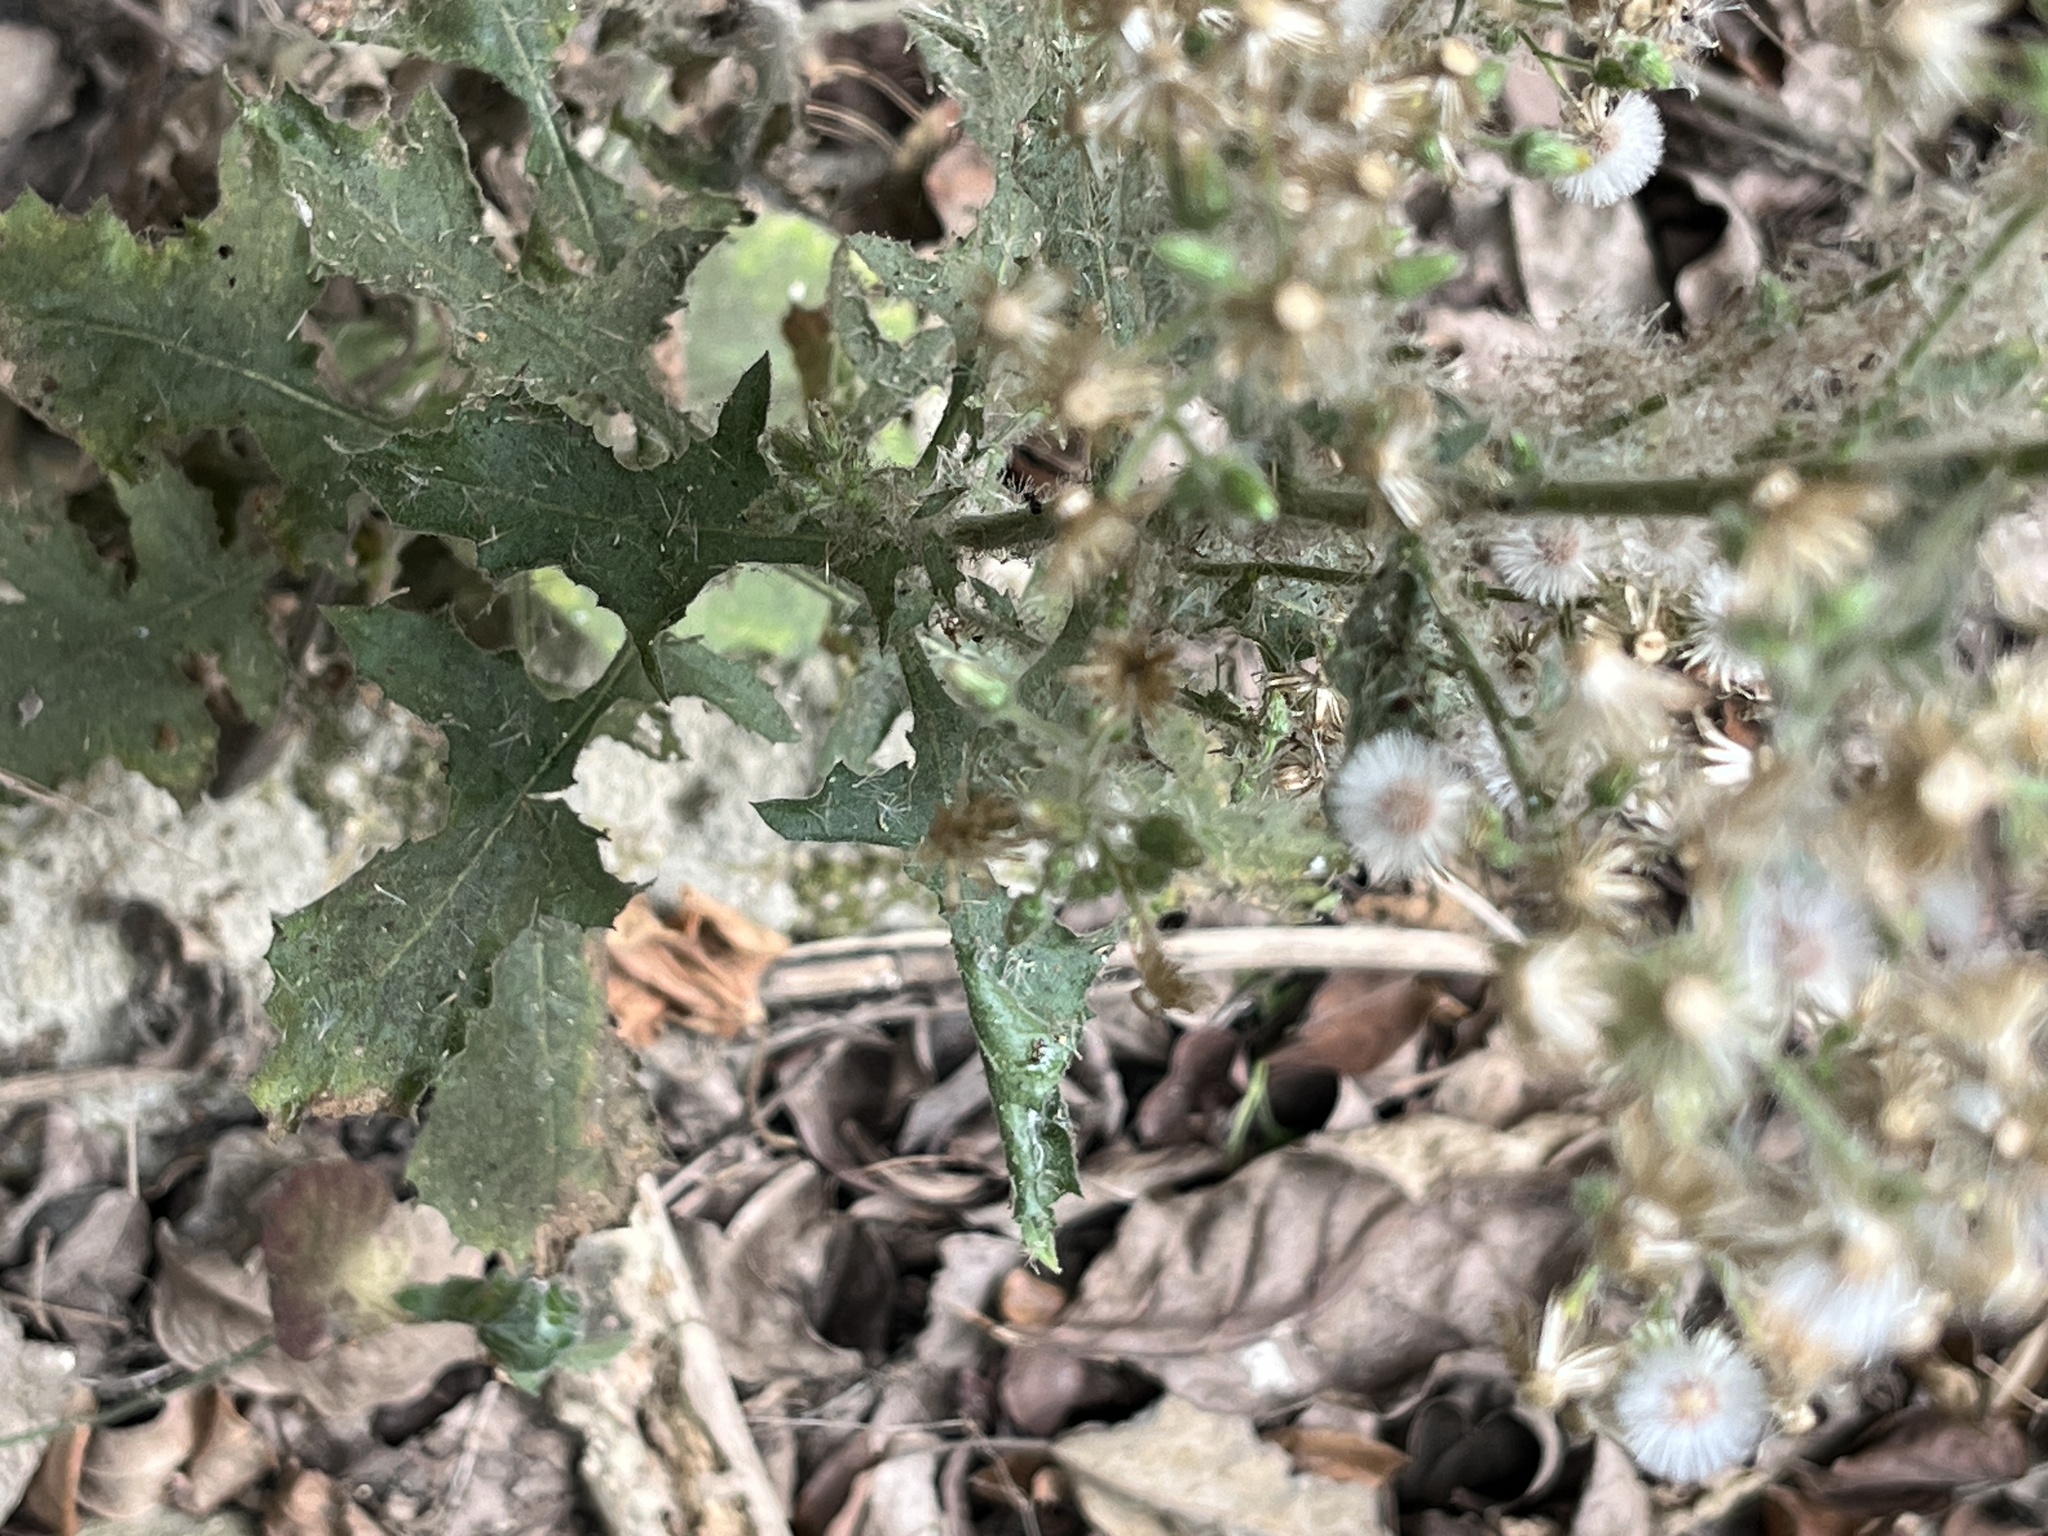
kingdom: Plantae
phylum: Tracheophyta
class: Magnoliopsida
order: Asterales
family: Asteraceae
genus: Blumea
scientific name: Blumea sinuata
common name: Cutleaf false oxtongue
